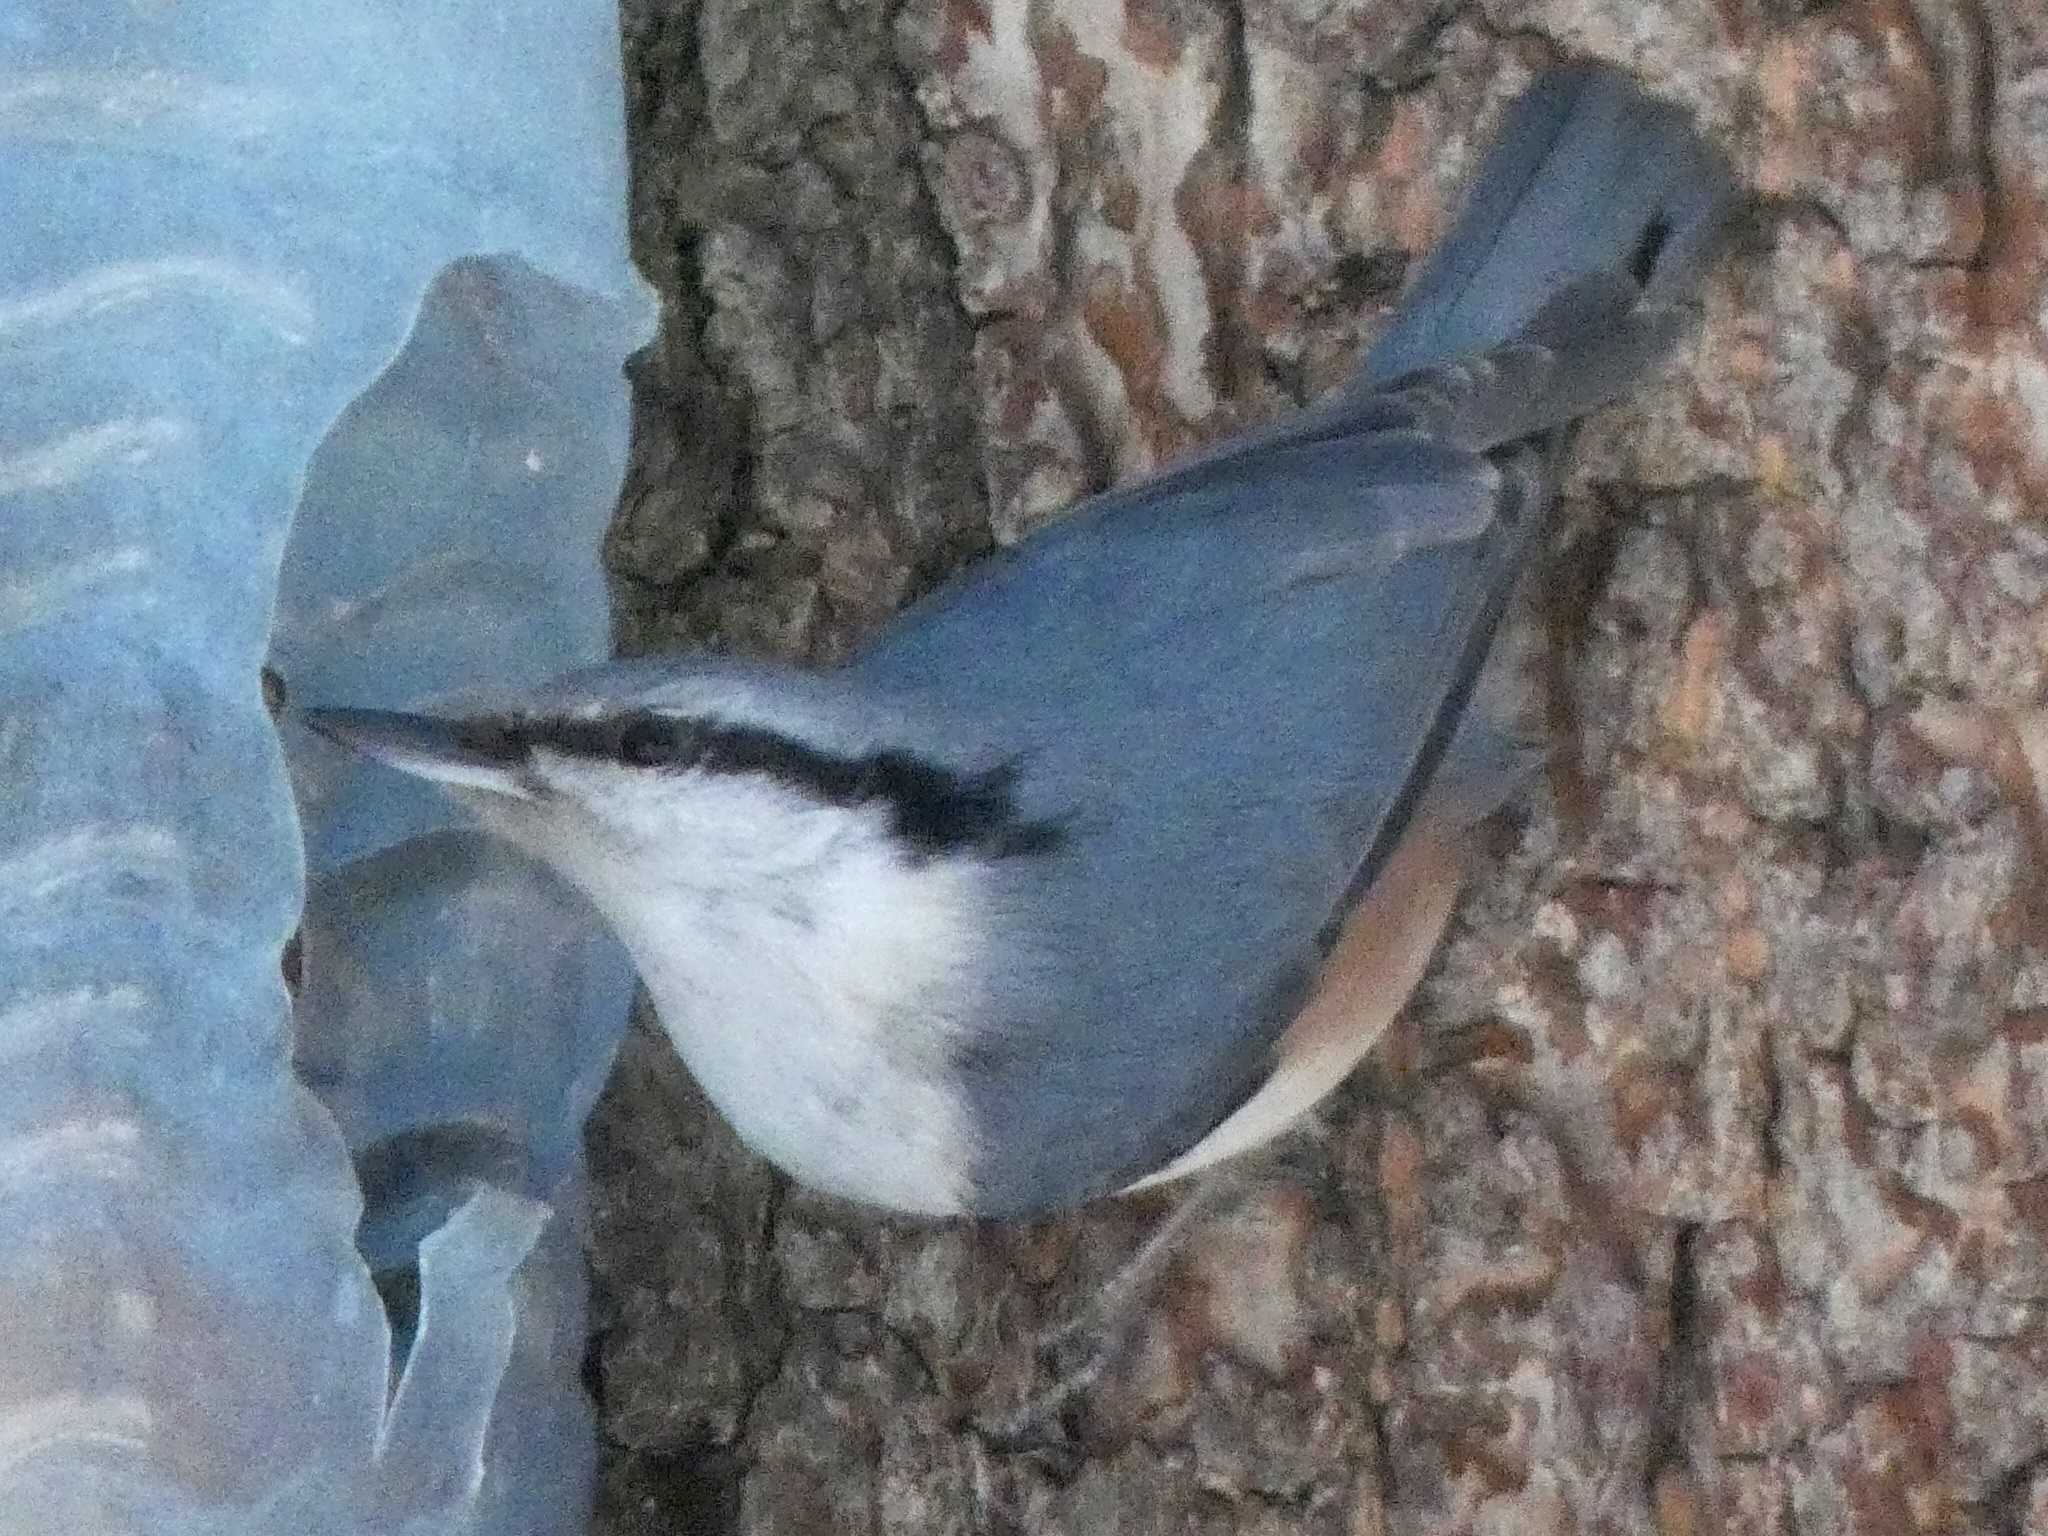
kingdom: Animalia
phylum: Chordata
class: Aves
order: Passeriformes
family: Sittidae
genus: Sitta
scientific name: Sitta europaea
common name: Eurasian nuthatch
